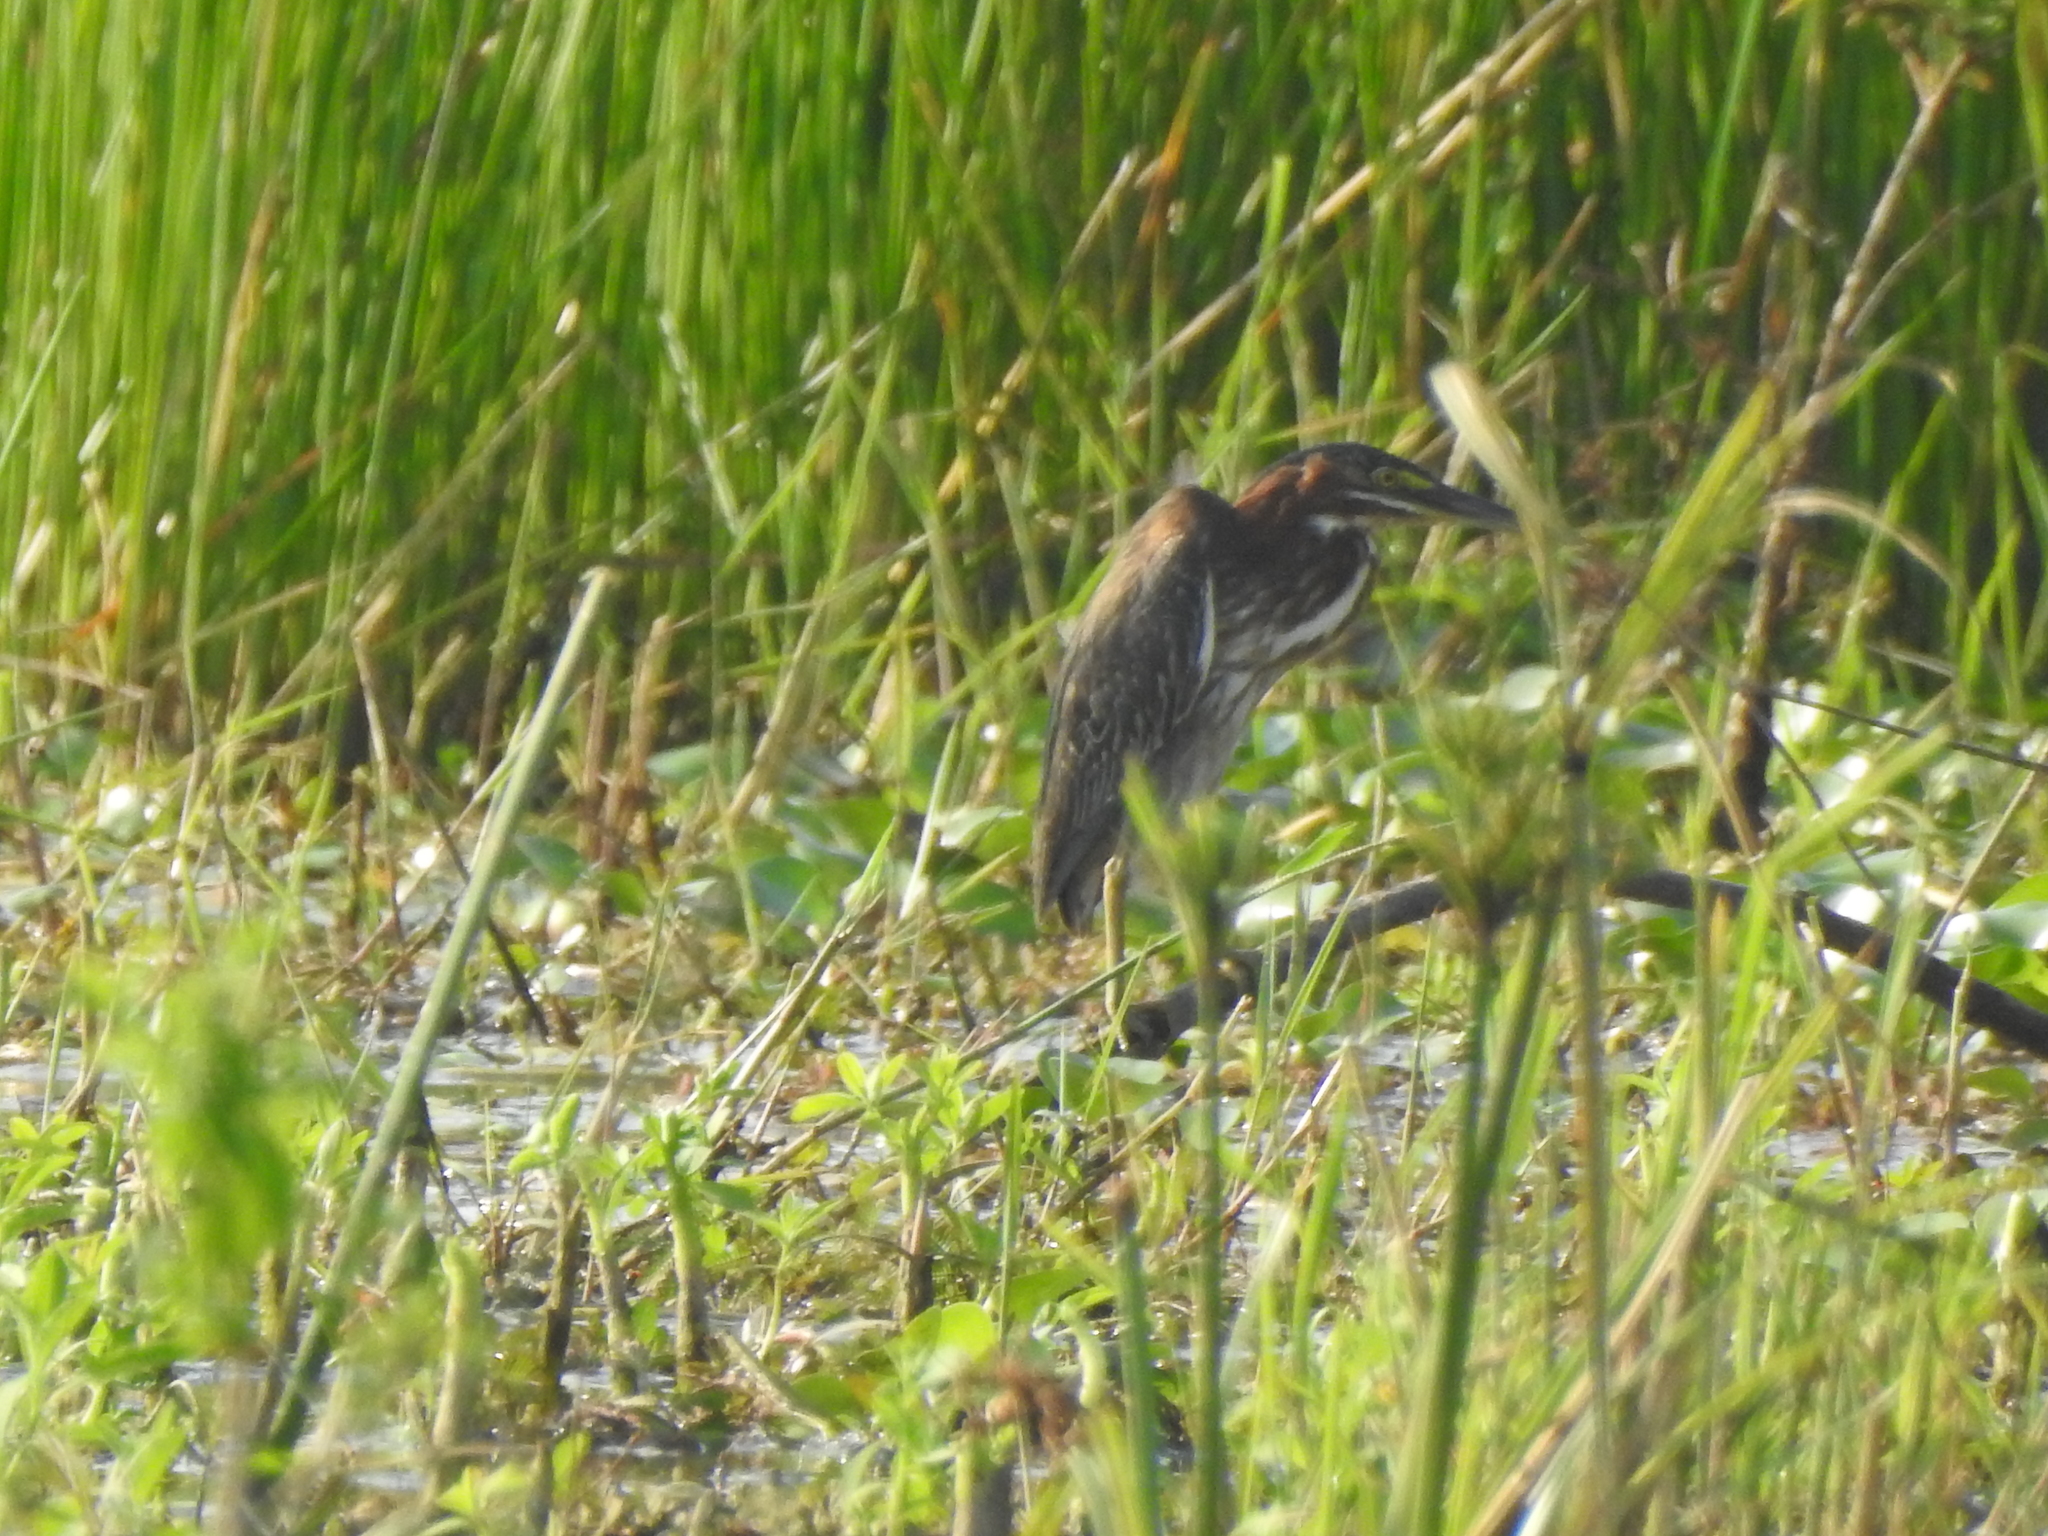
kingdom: Animalia
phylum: Chordata
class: Aves
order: Pelecaniformes
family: Ardeidae
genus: Butorides
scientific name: Butorides virescens
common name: Green heron
